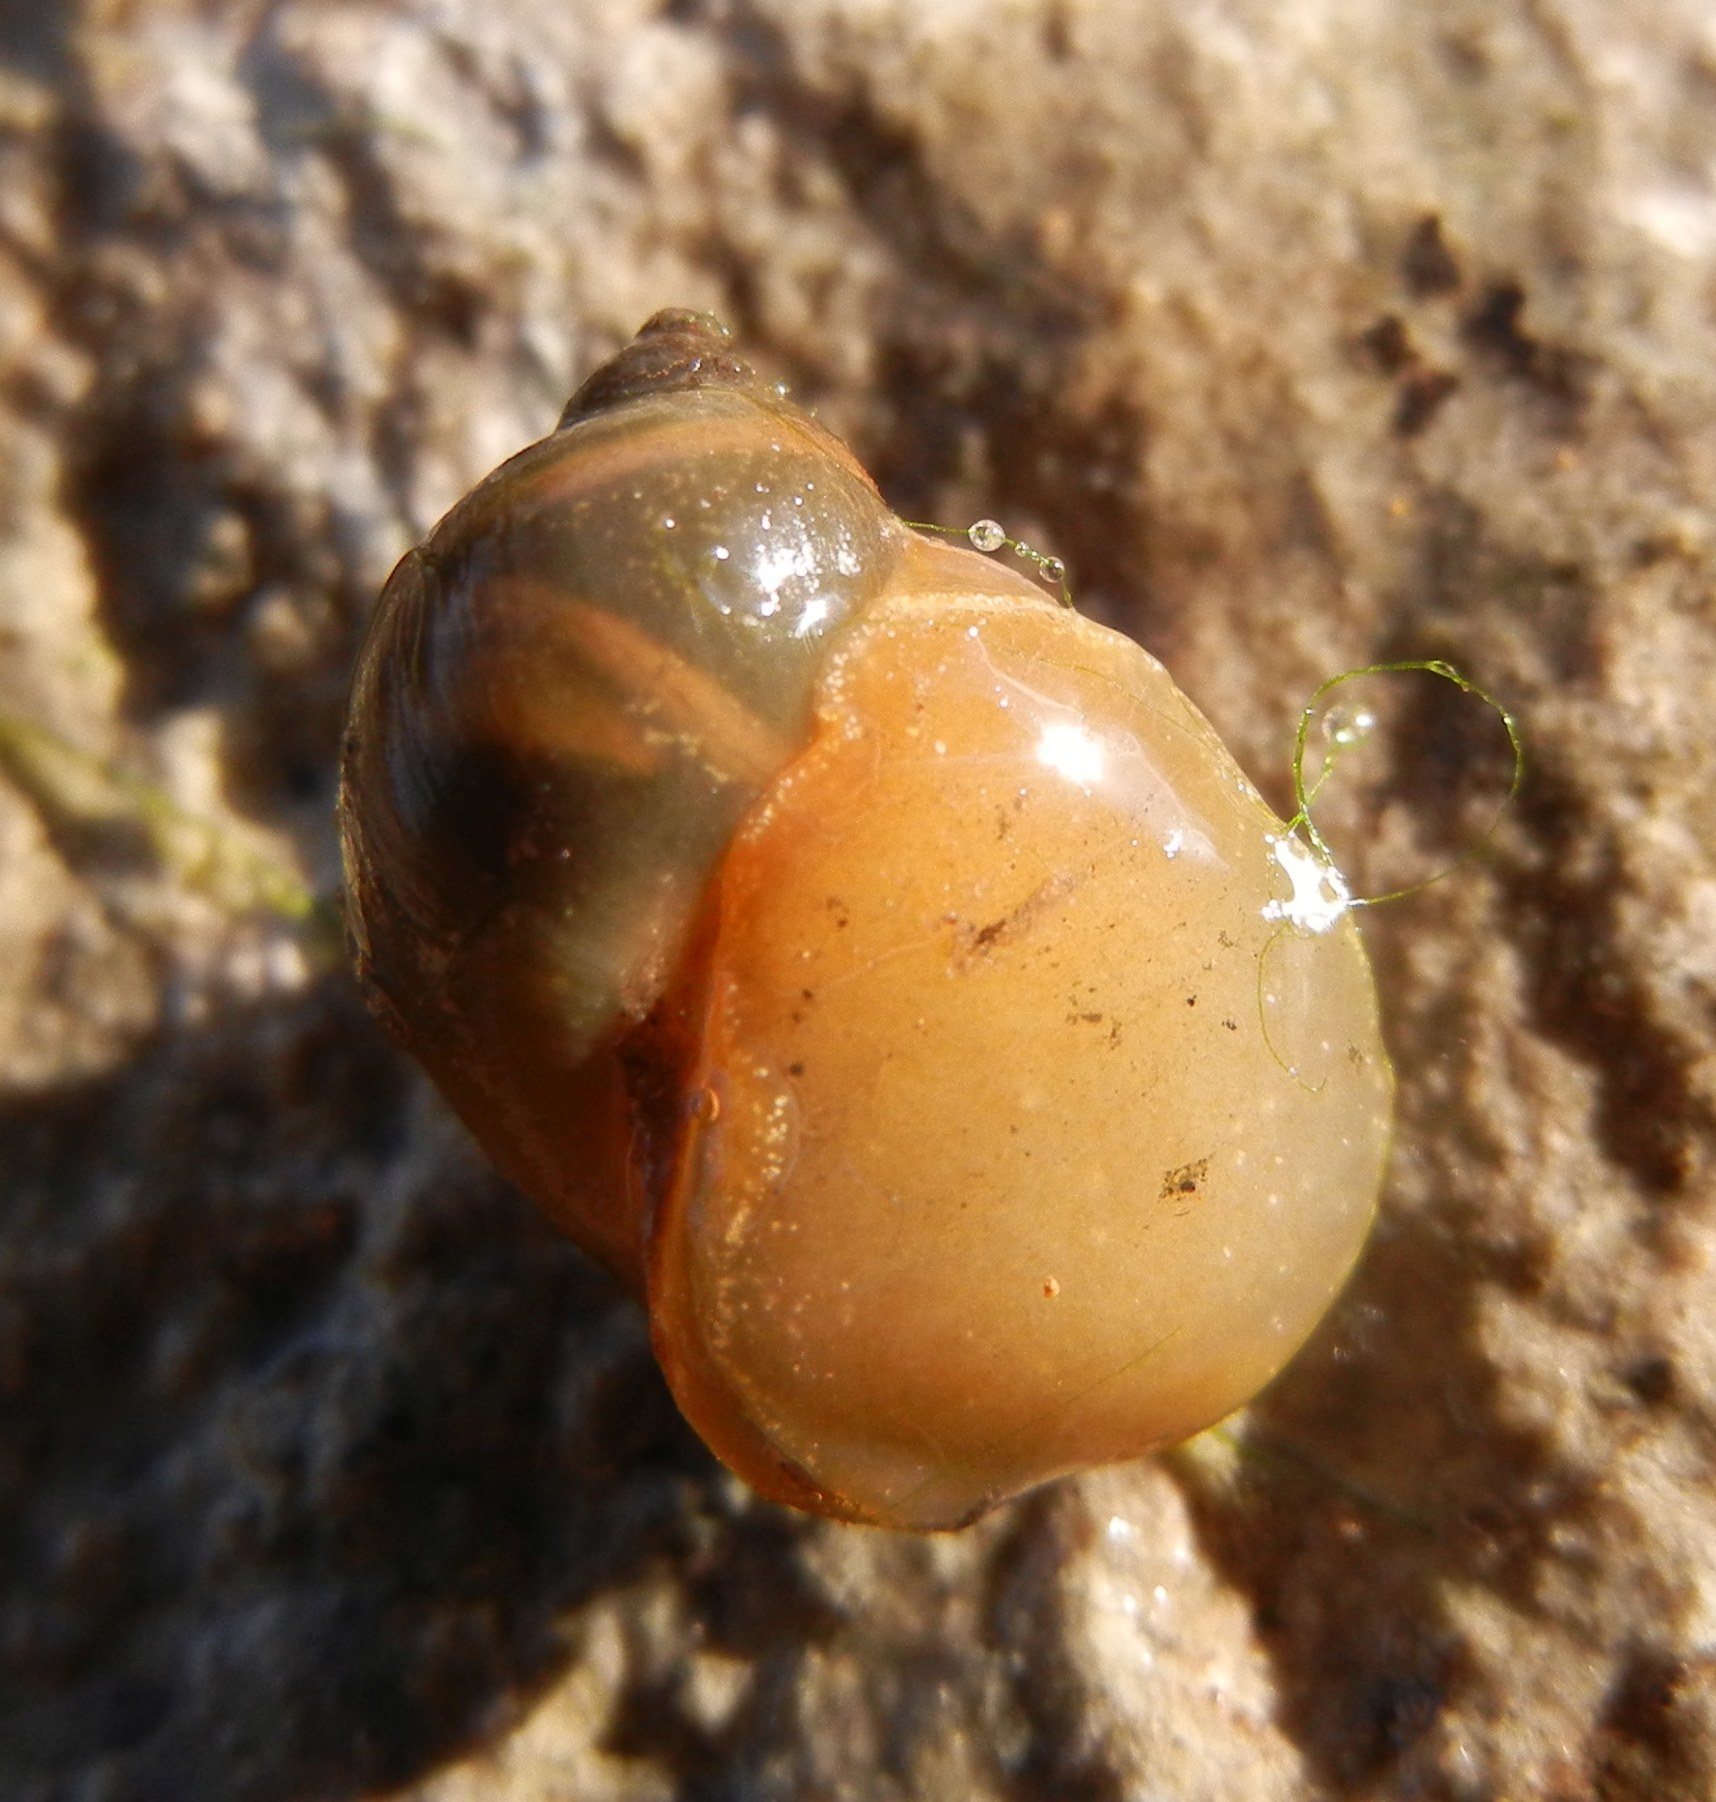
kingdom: Animalia
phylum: Mollusca
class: Gastropoda
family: Lymnaeidae
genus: Ampullaceana
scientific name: Ampullaceana balthica
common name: Wandering pond snail
